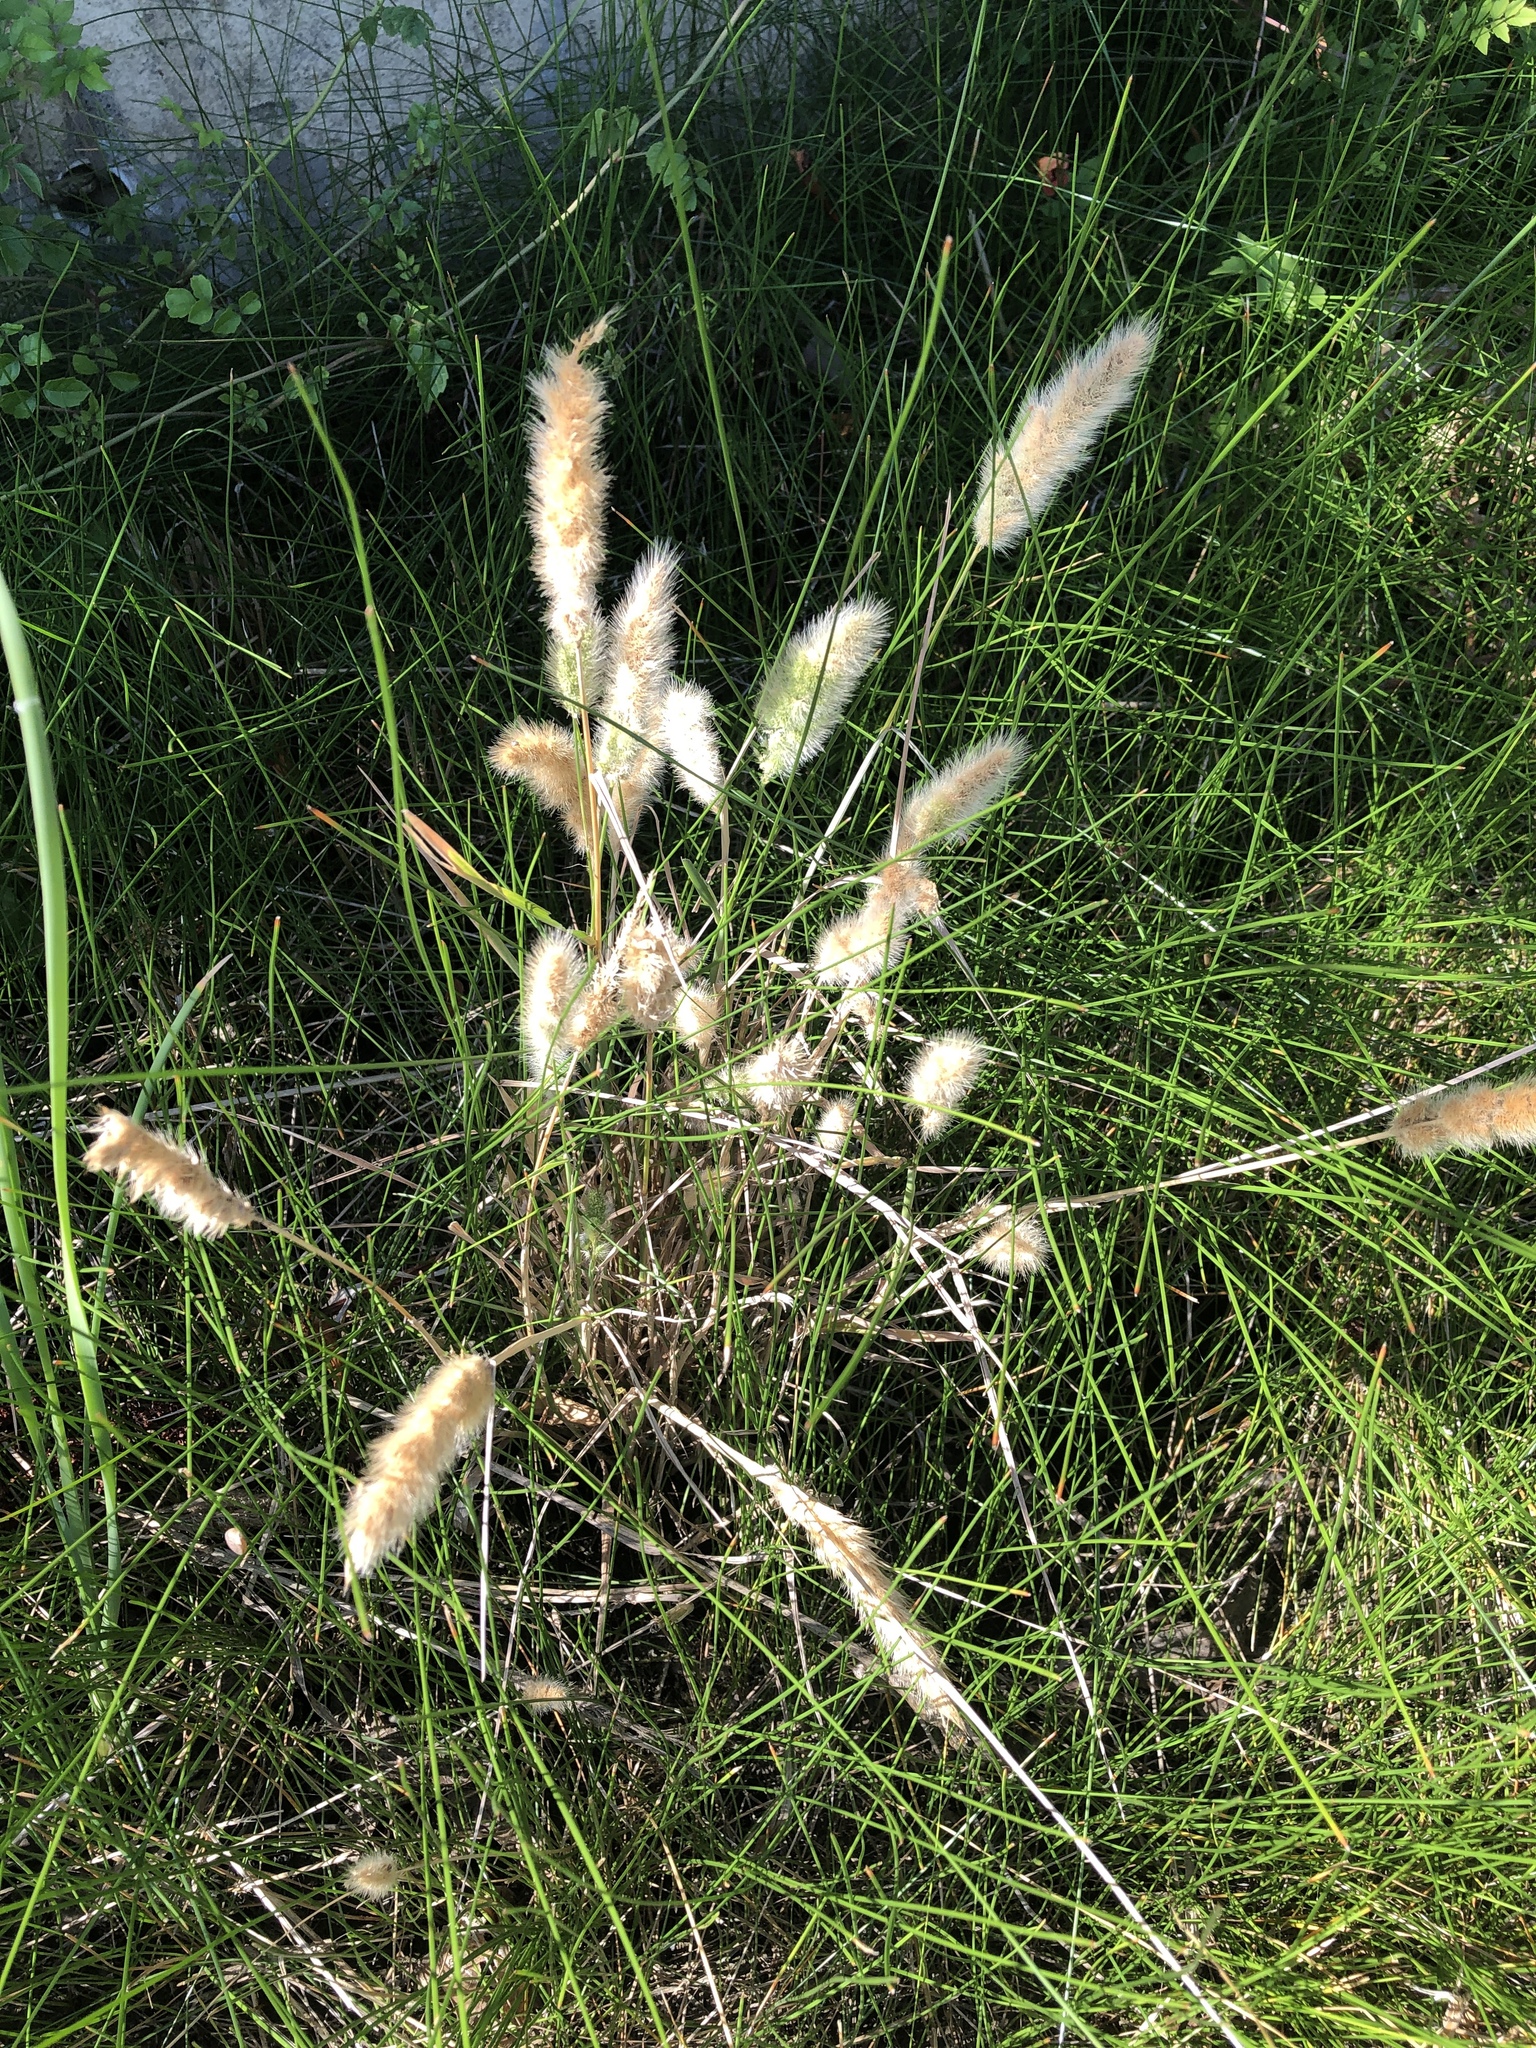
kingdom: Plantae
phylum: Tracheophyta
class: Liliopsida
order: Poales
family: Poaceae
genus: Polypogon
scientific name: Polypogon monspeliensis
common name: Annual rabbitsfoot grass
